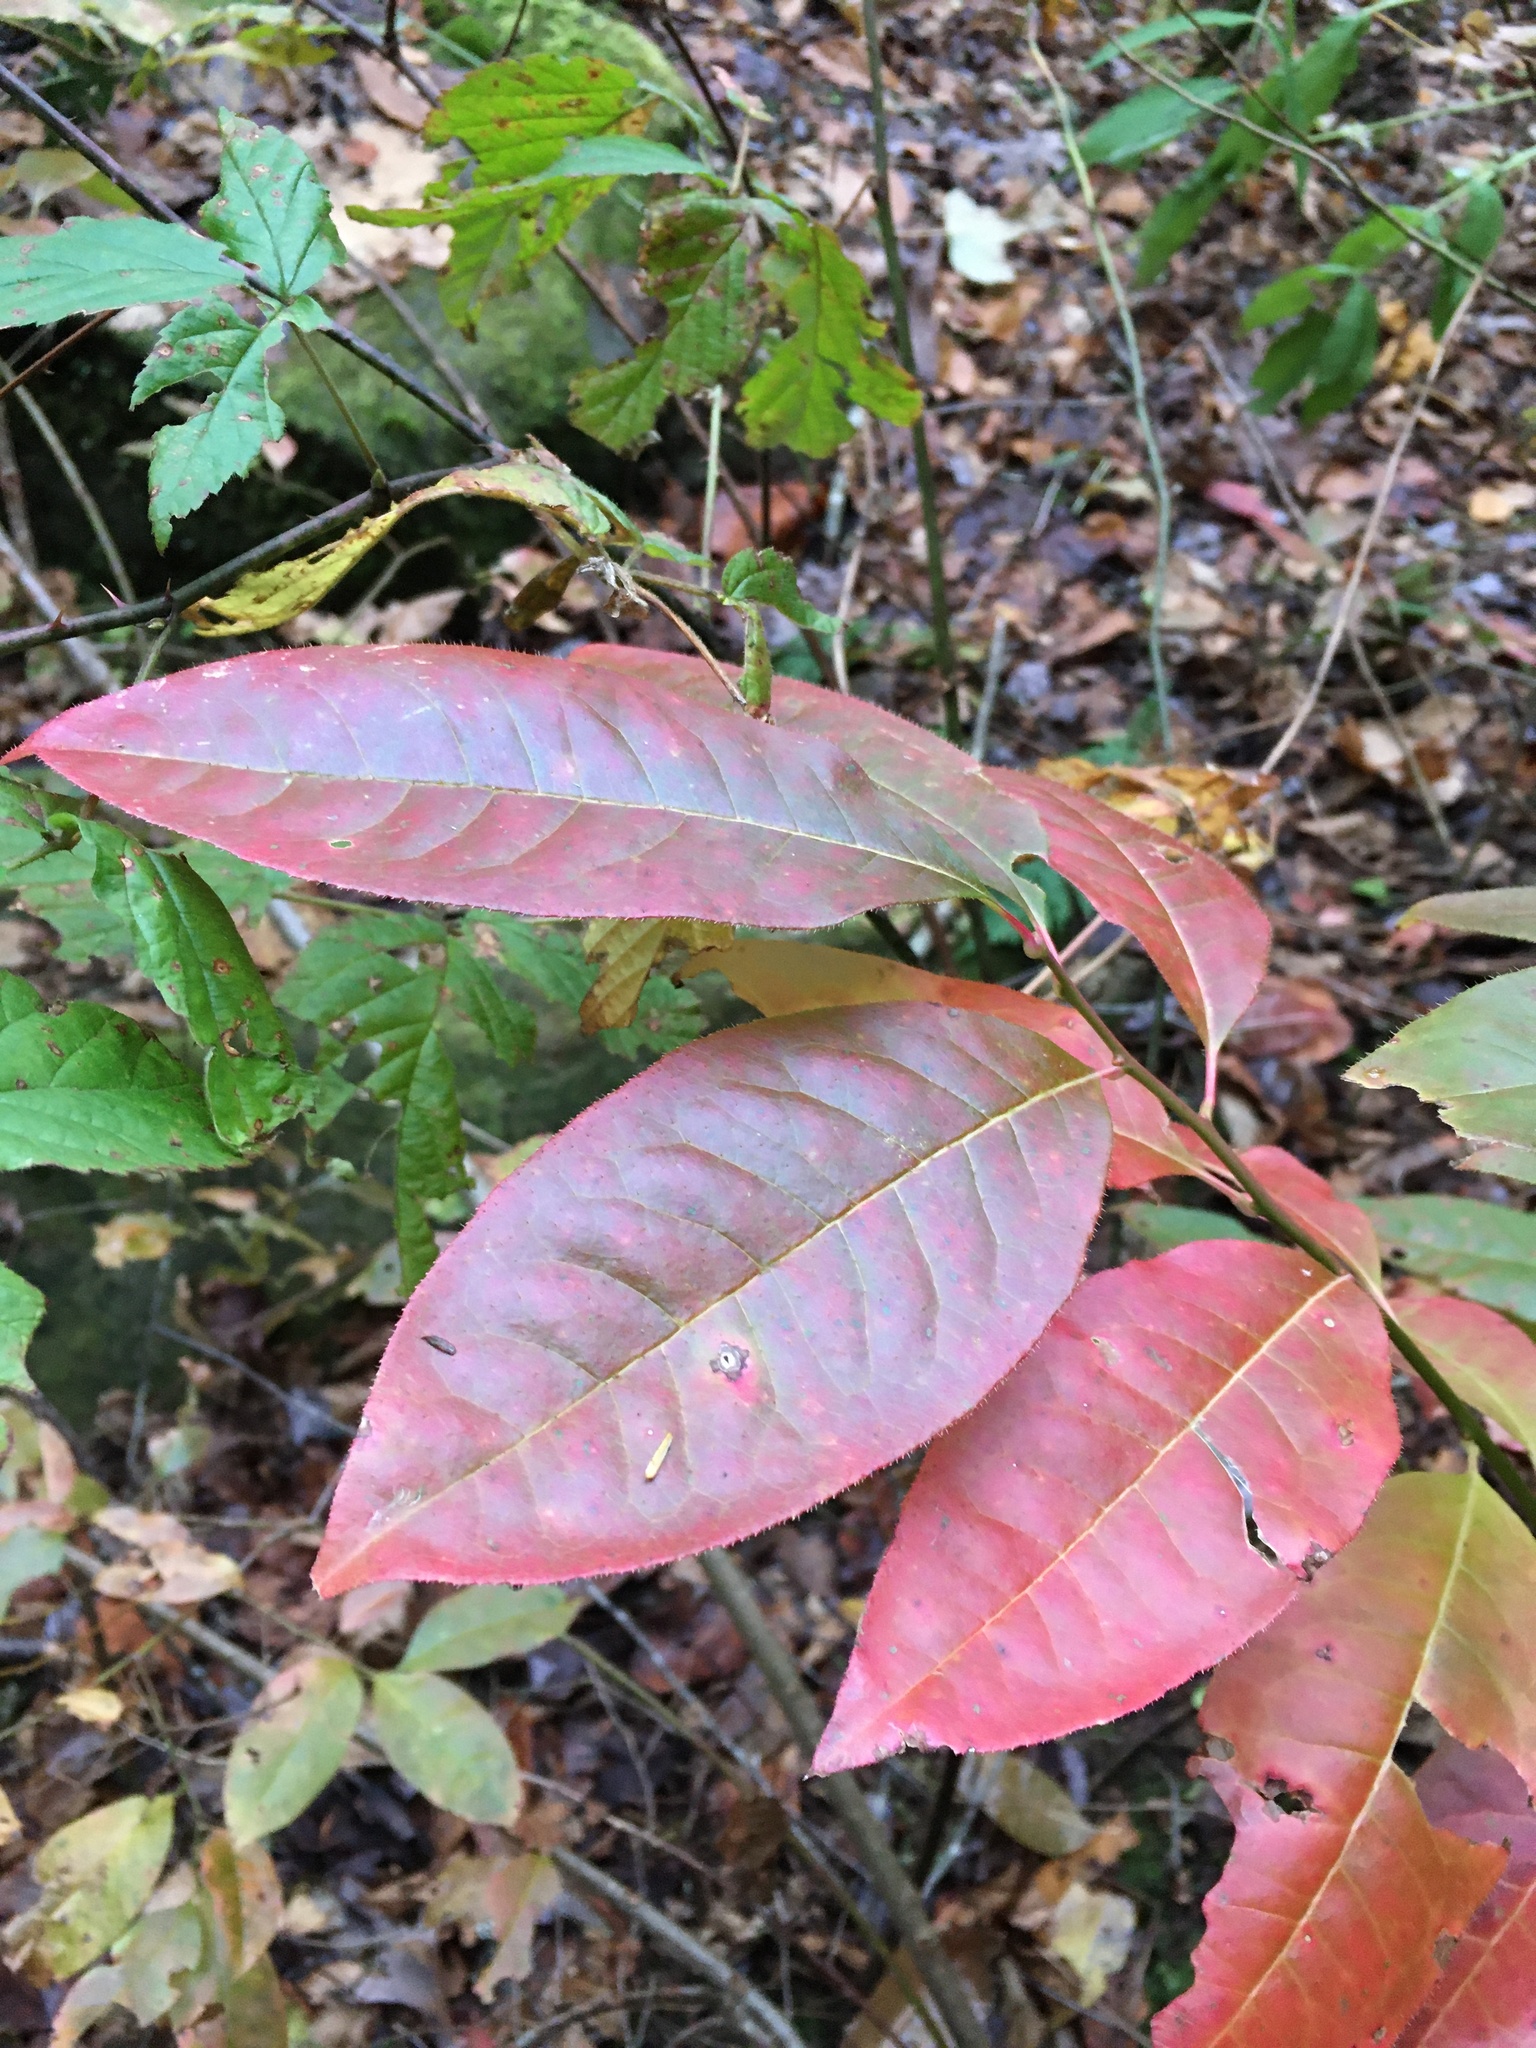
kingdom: Plantae
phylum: Tracheophyta
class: Magnoliopsida
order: Ericales
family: Ericaceae
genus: Oxydendrum
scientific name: Oxydendrum arboreum
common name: Sourwood
